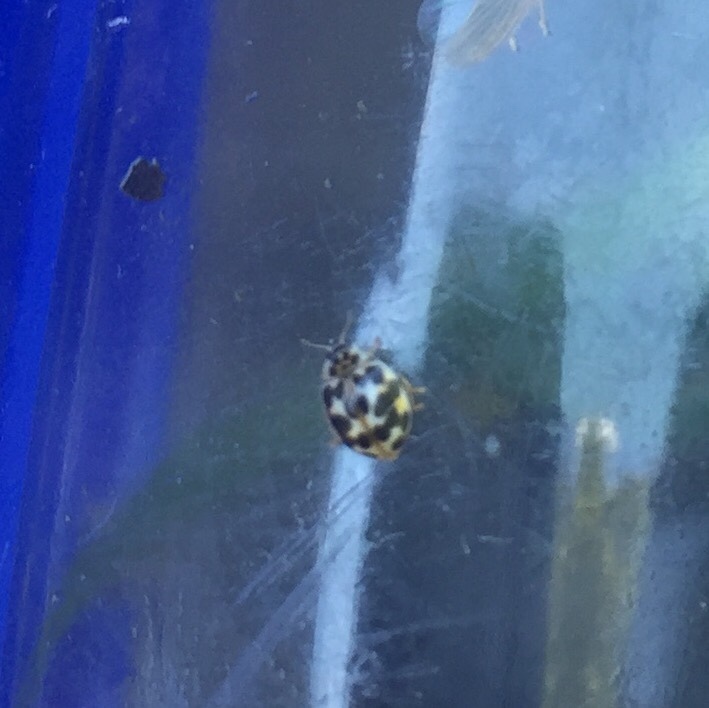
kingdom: Animalia
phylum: Arthropoda
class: Insecta
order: Coleoptera
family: Coccinellidae
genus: Psyllobora
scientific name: Psyllobora vigintimaculata
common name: Ladybird beetle
